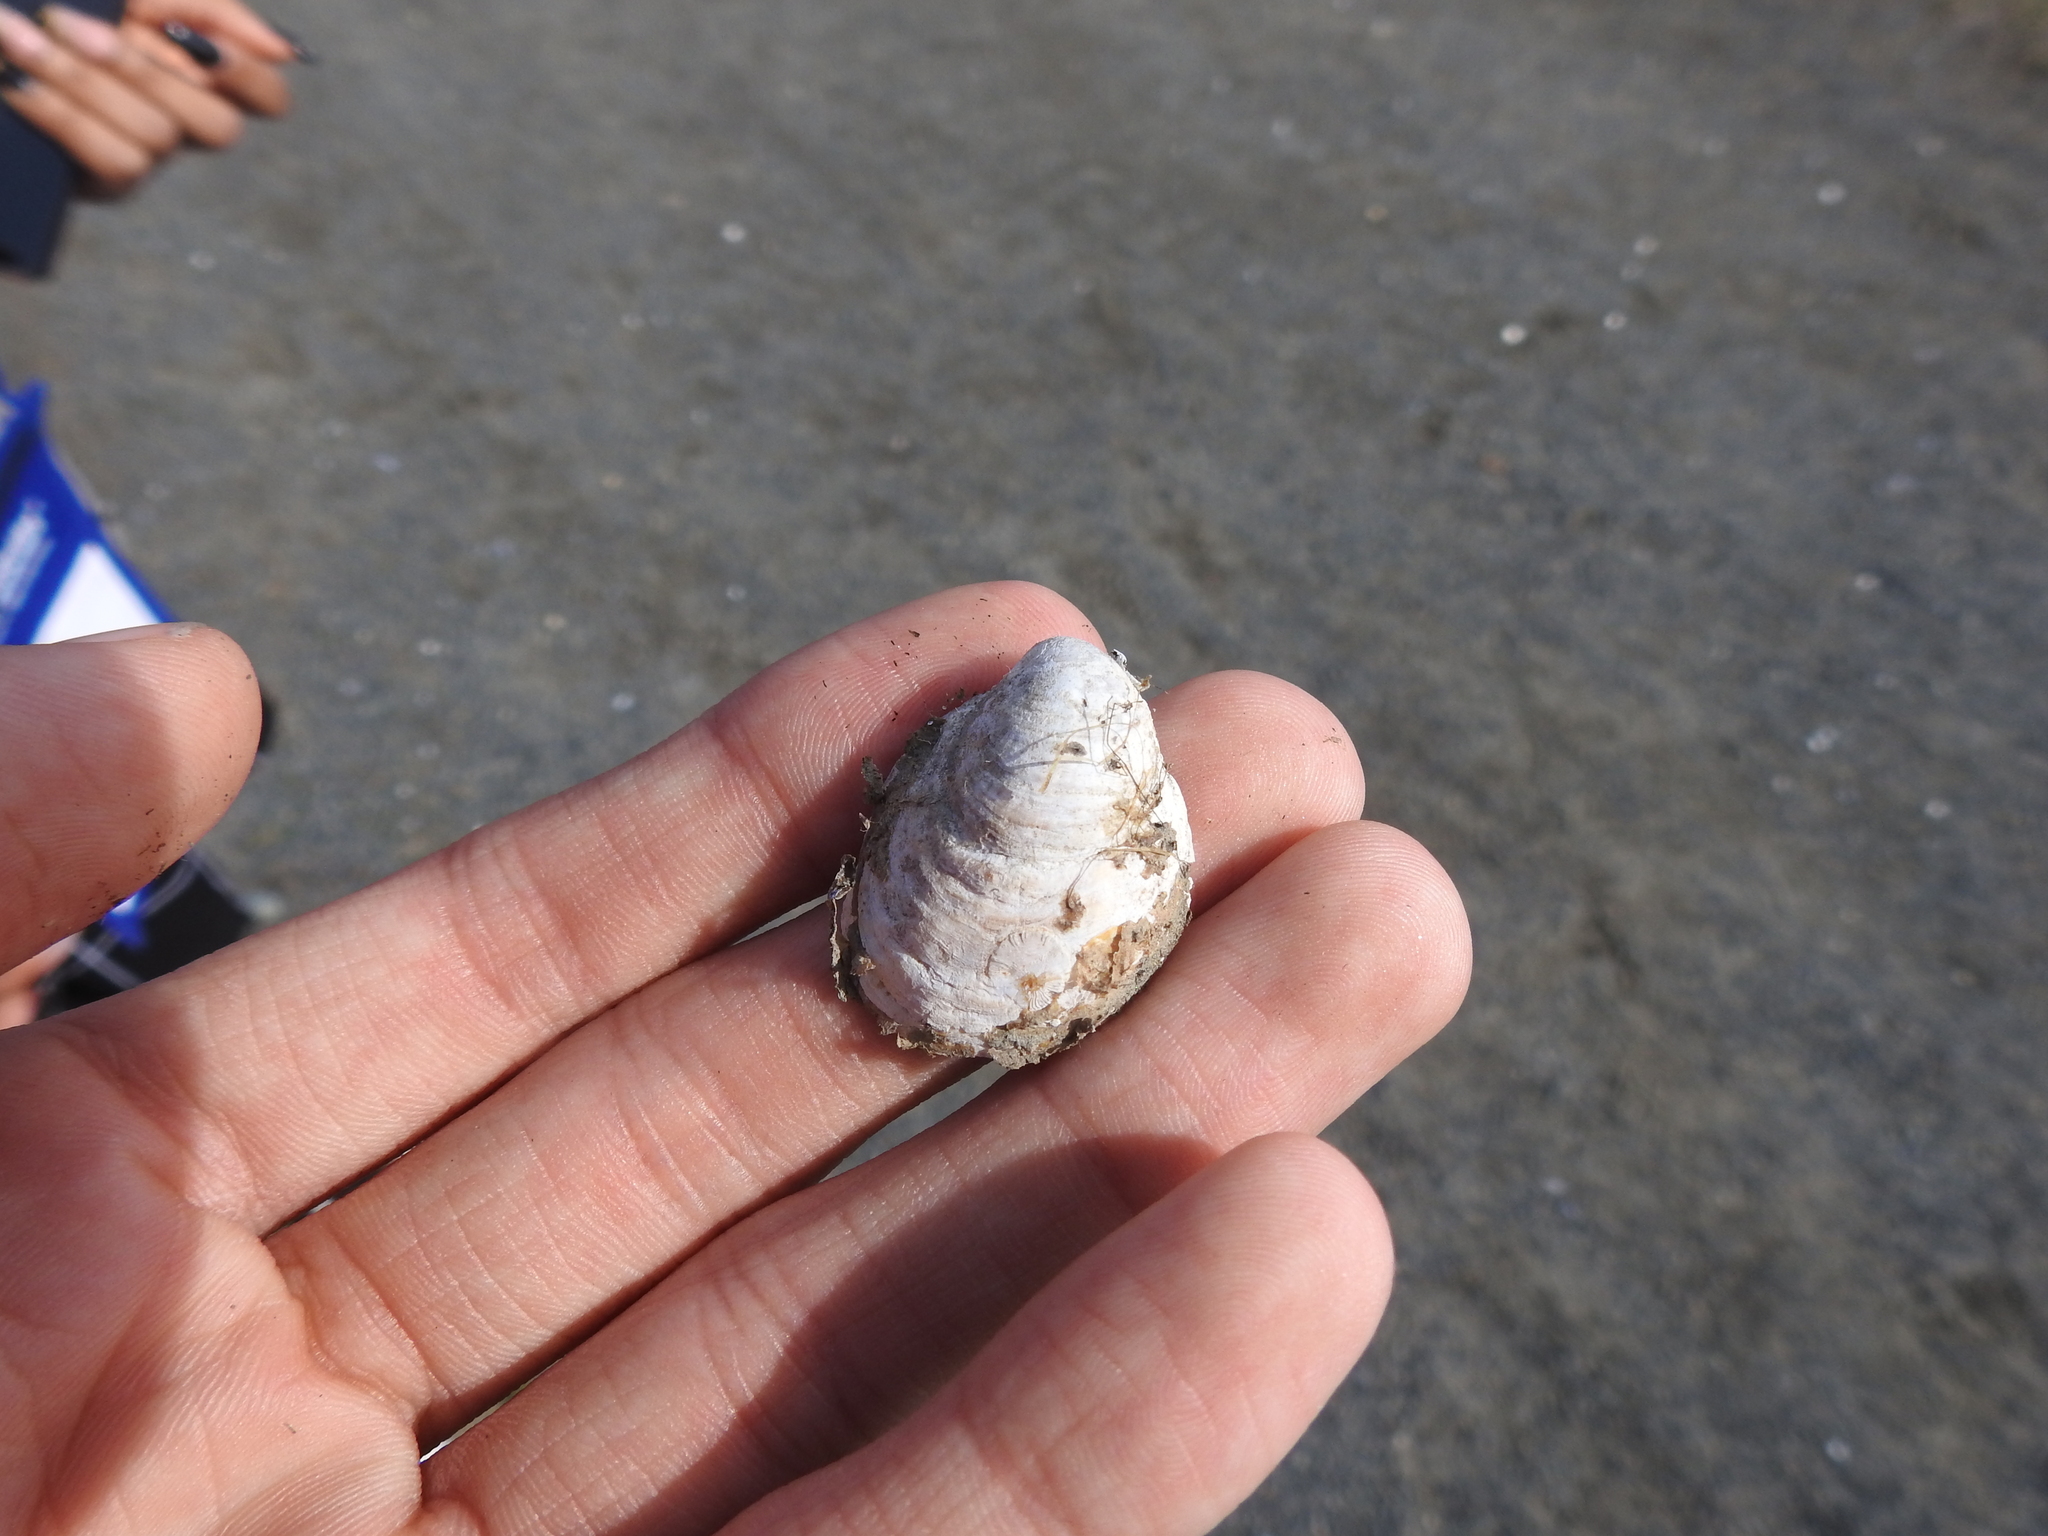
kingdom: Animalia
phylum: Mollusca
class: Gastropoda
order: Littorinimorpha
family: Calyptraeidae
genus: Crepidula
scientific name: Crepidula fornicata
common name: Slipper limpet
